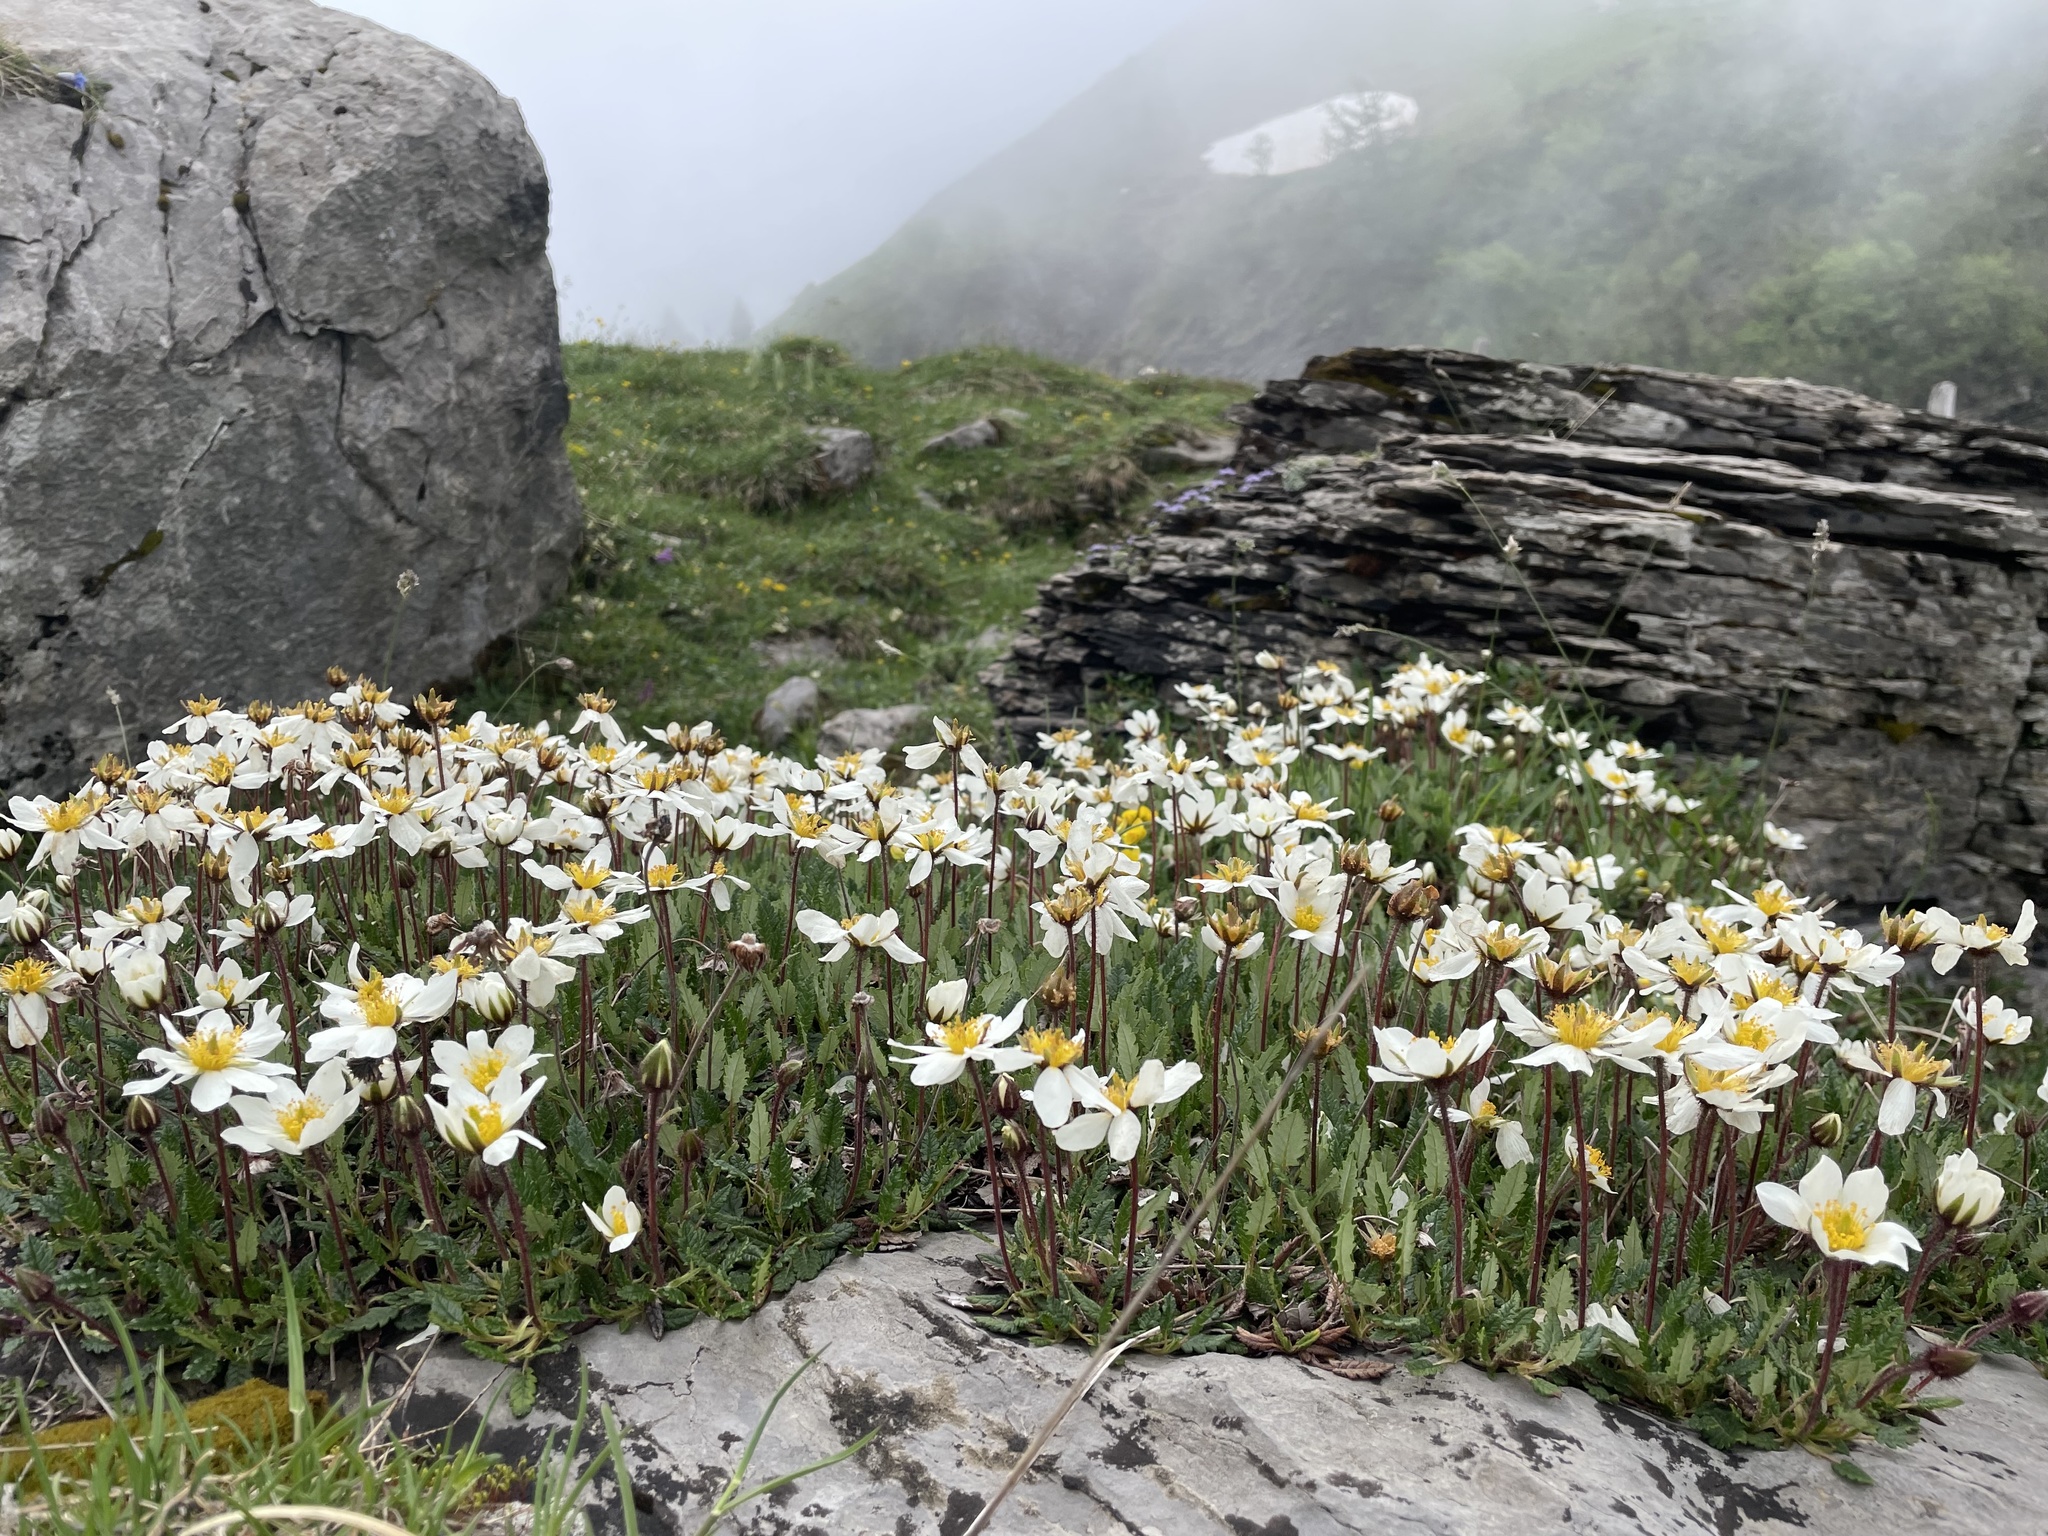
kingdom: Plantae
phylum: Tracheophyta
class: Magnoliopsida
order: Rosales
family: Rosaceae
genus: Dryas
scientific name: Dryas octopetala
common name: Eight-petal mountain-avens
